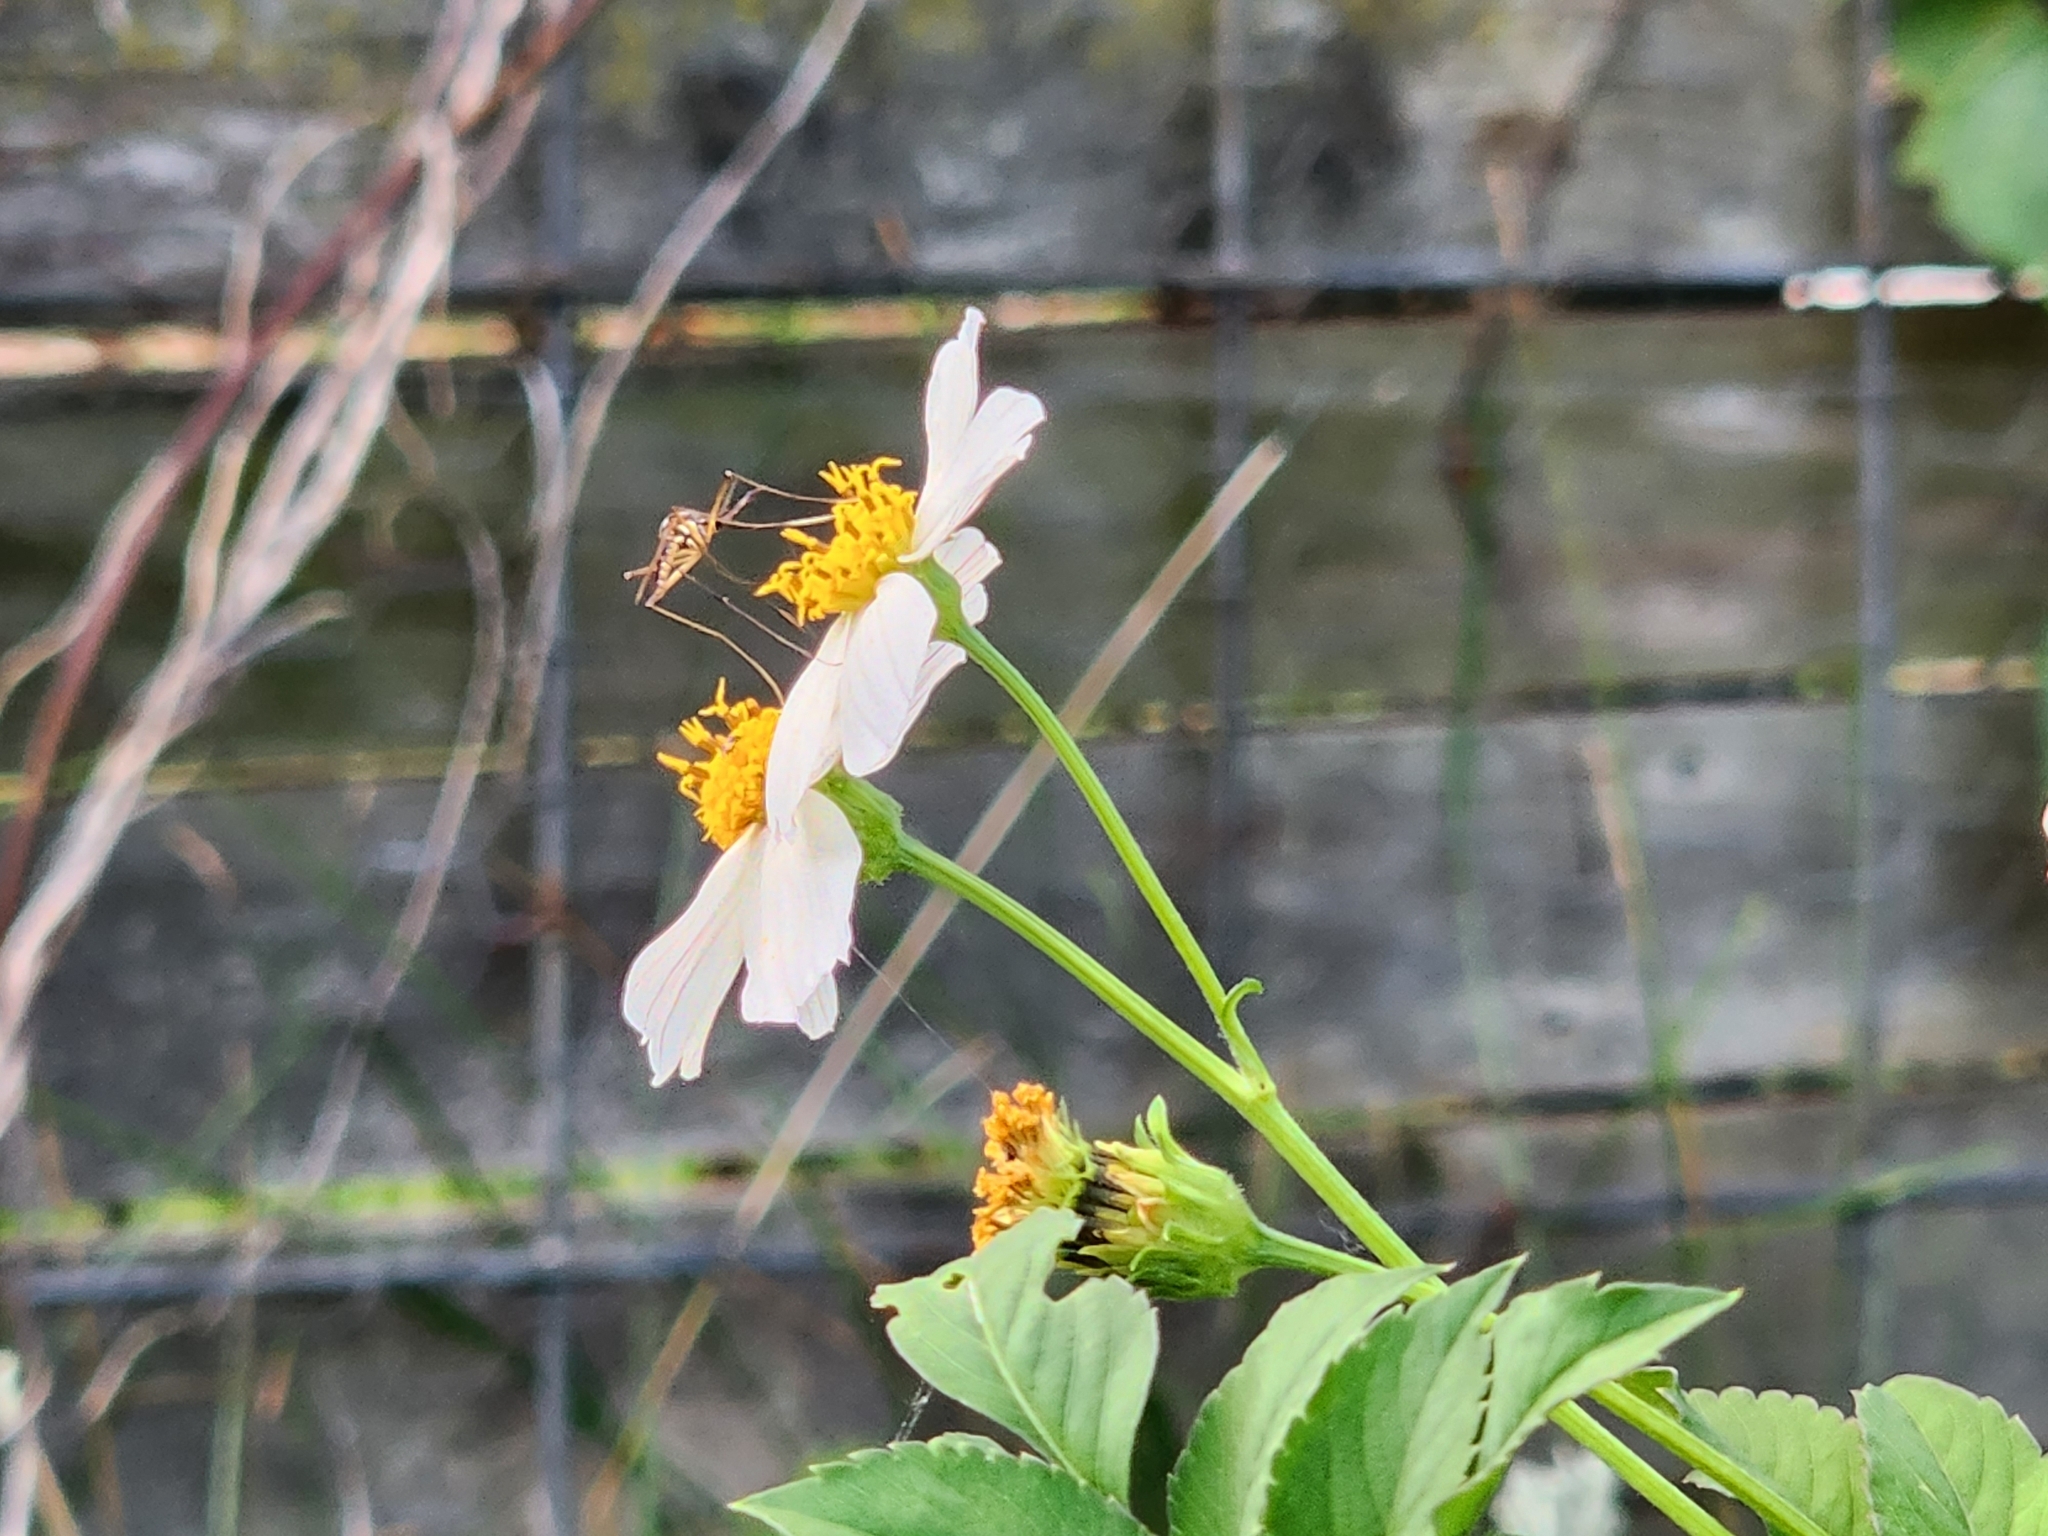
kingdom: Animalia
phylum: Arthropoda
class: Insecta
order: Diptera
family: Culicidae
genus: Toxorhynchites
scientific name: Toxorhynchites rutilus
